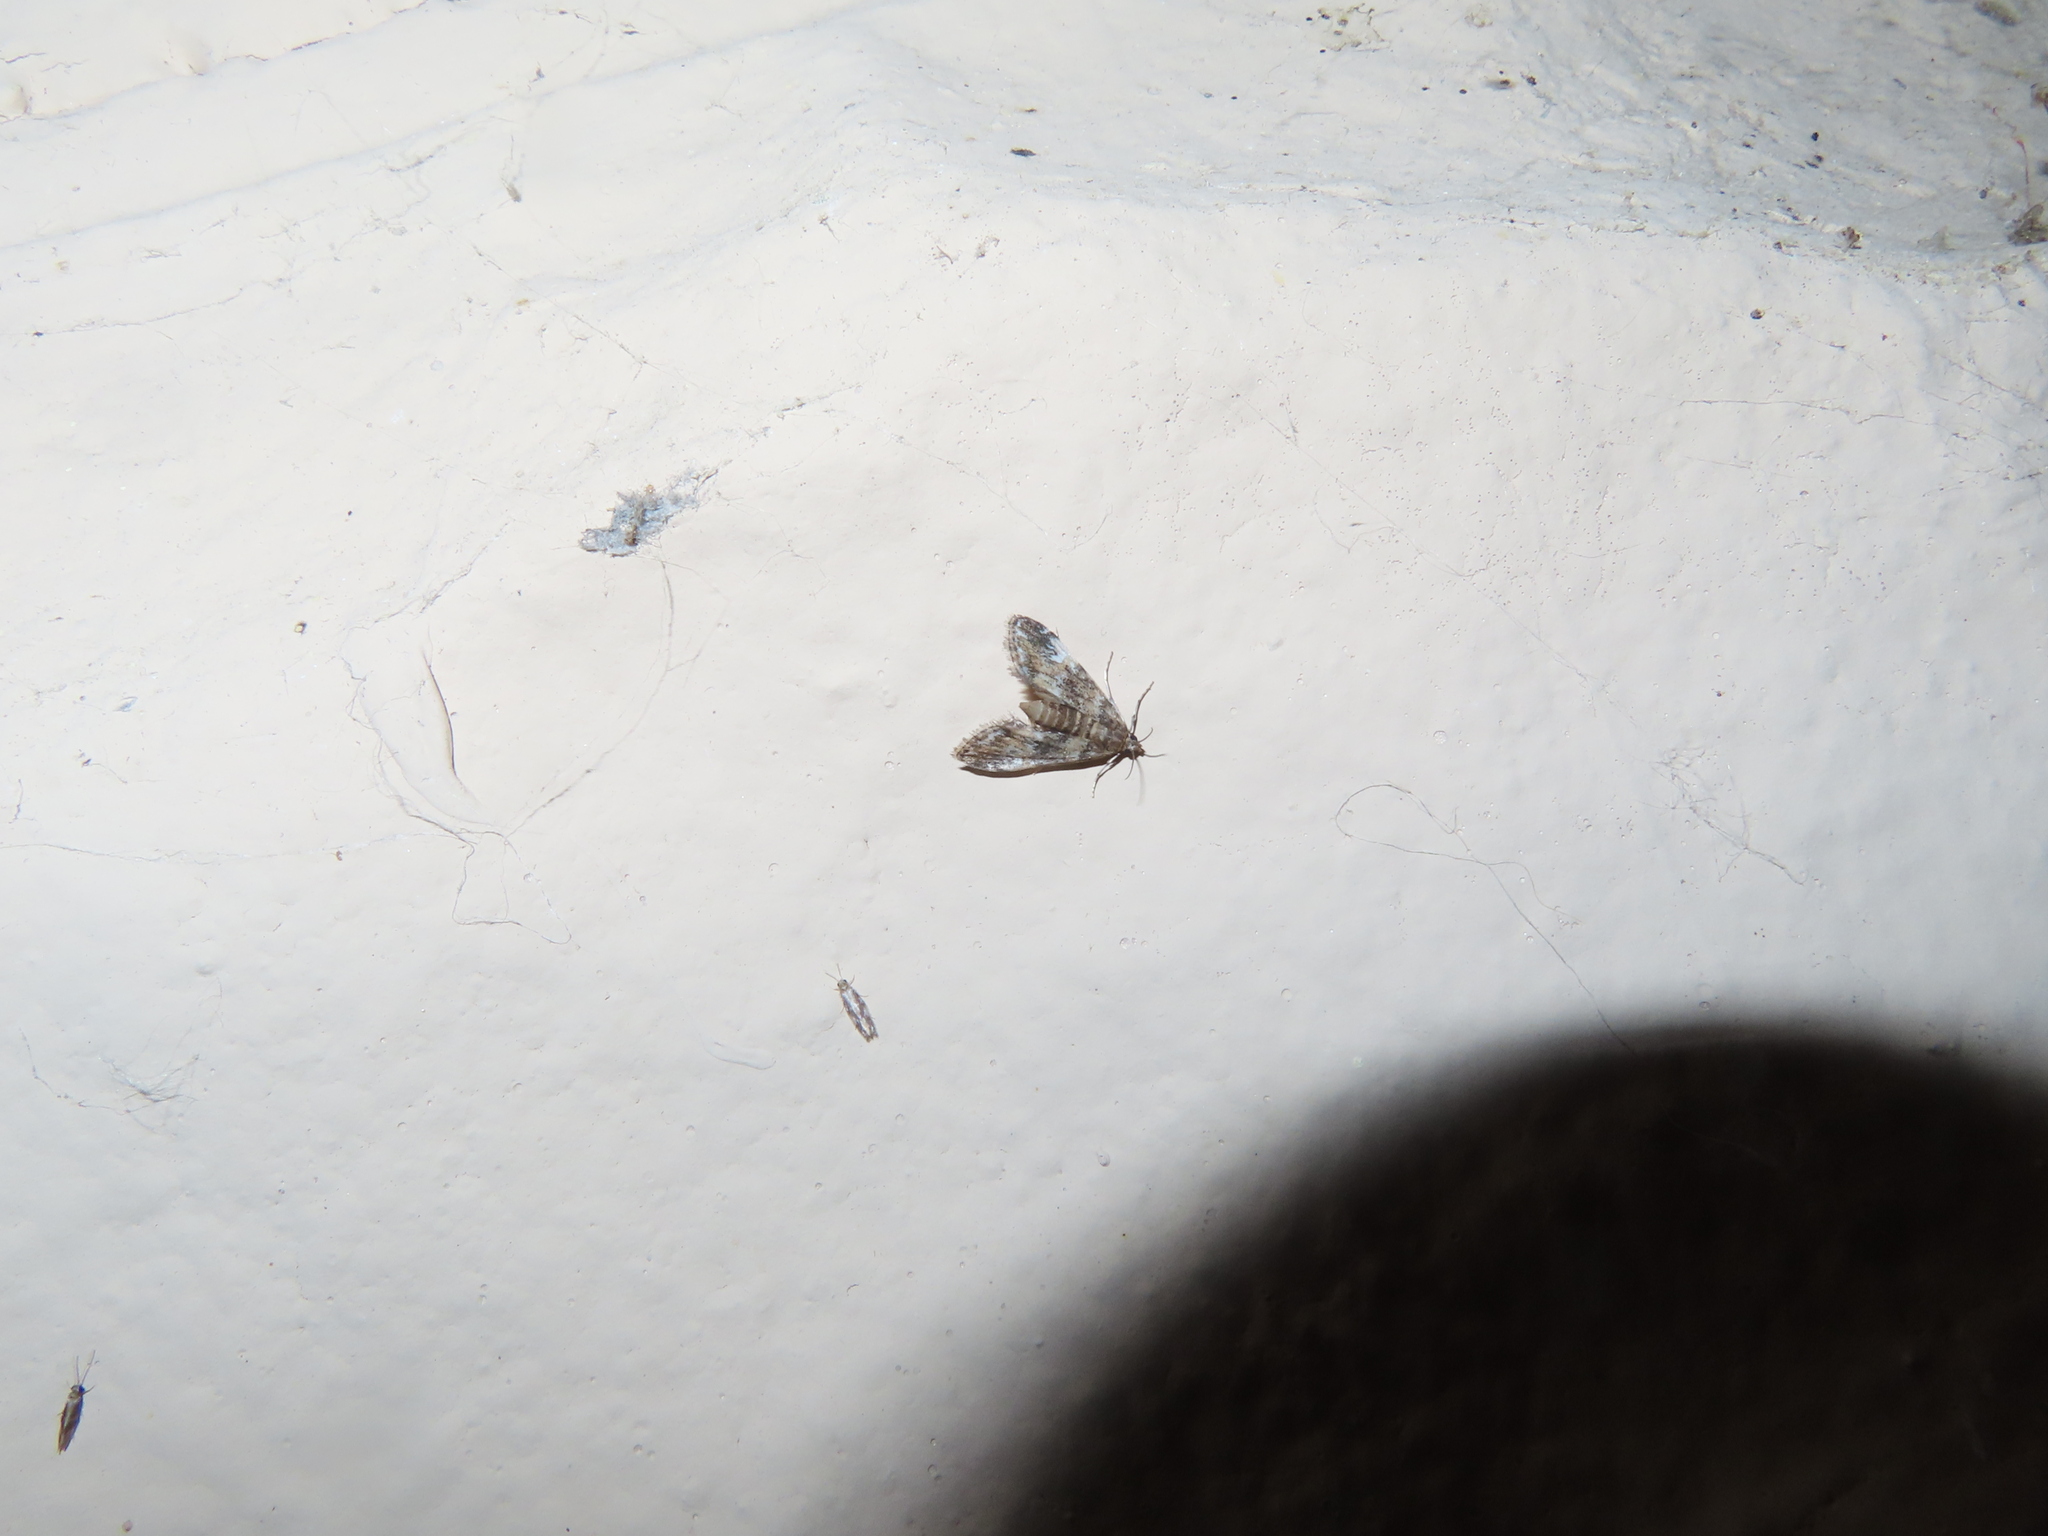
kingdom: Animalia
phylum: Arthropoda
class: Insecta
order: Lepidoptera
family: Crambidae
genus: Elophila
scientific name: Elophila obliteralis
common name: Waterlily leafcutter moth
